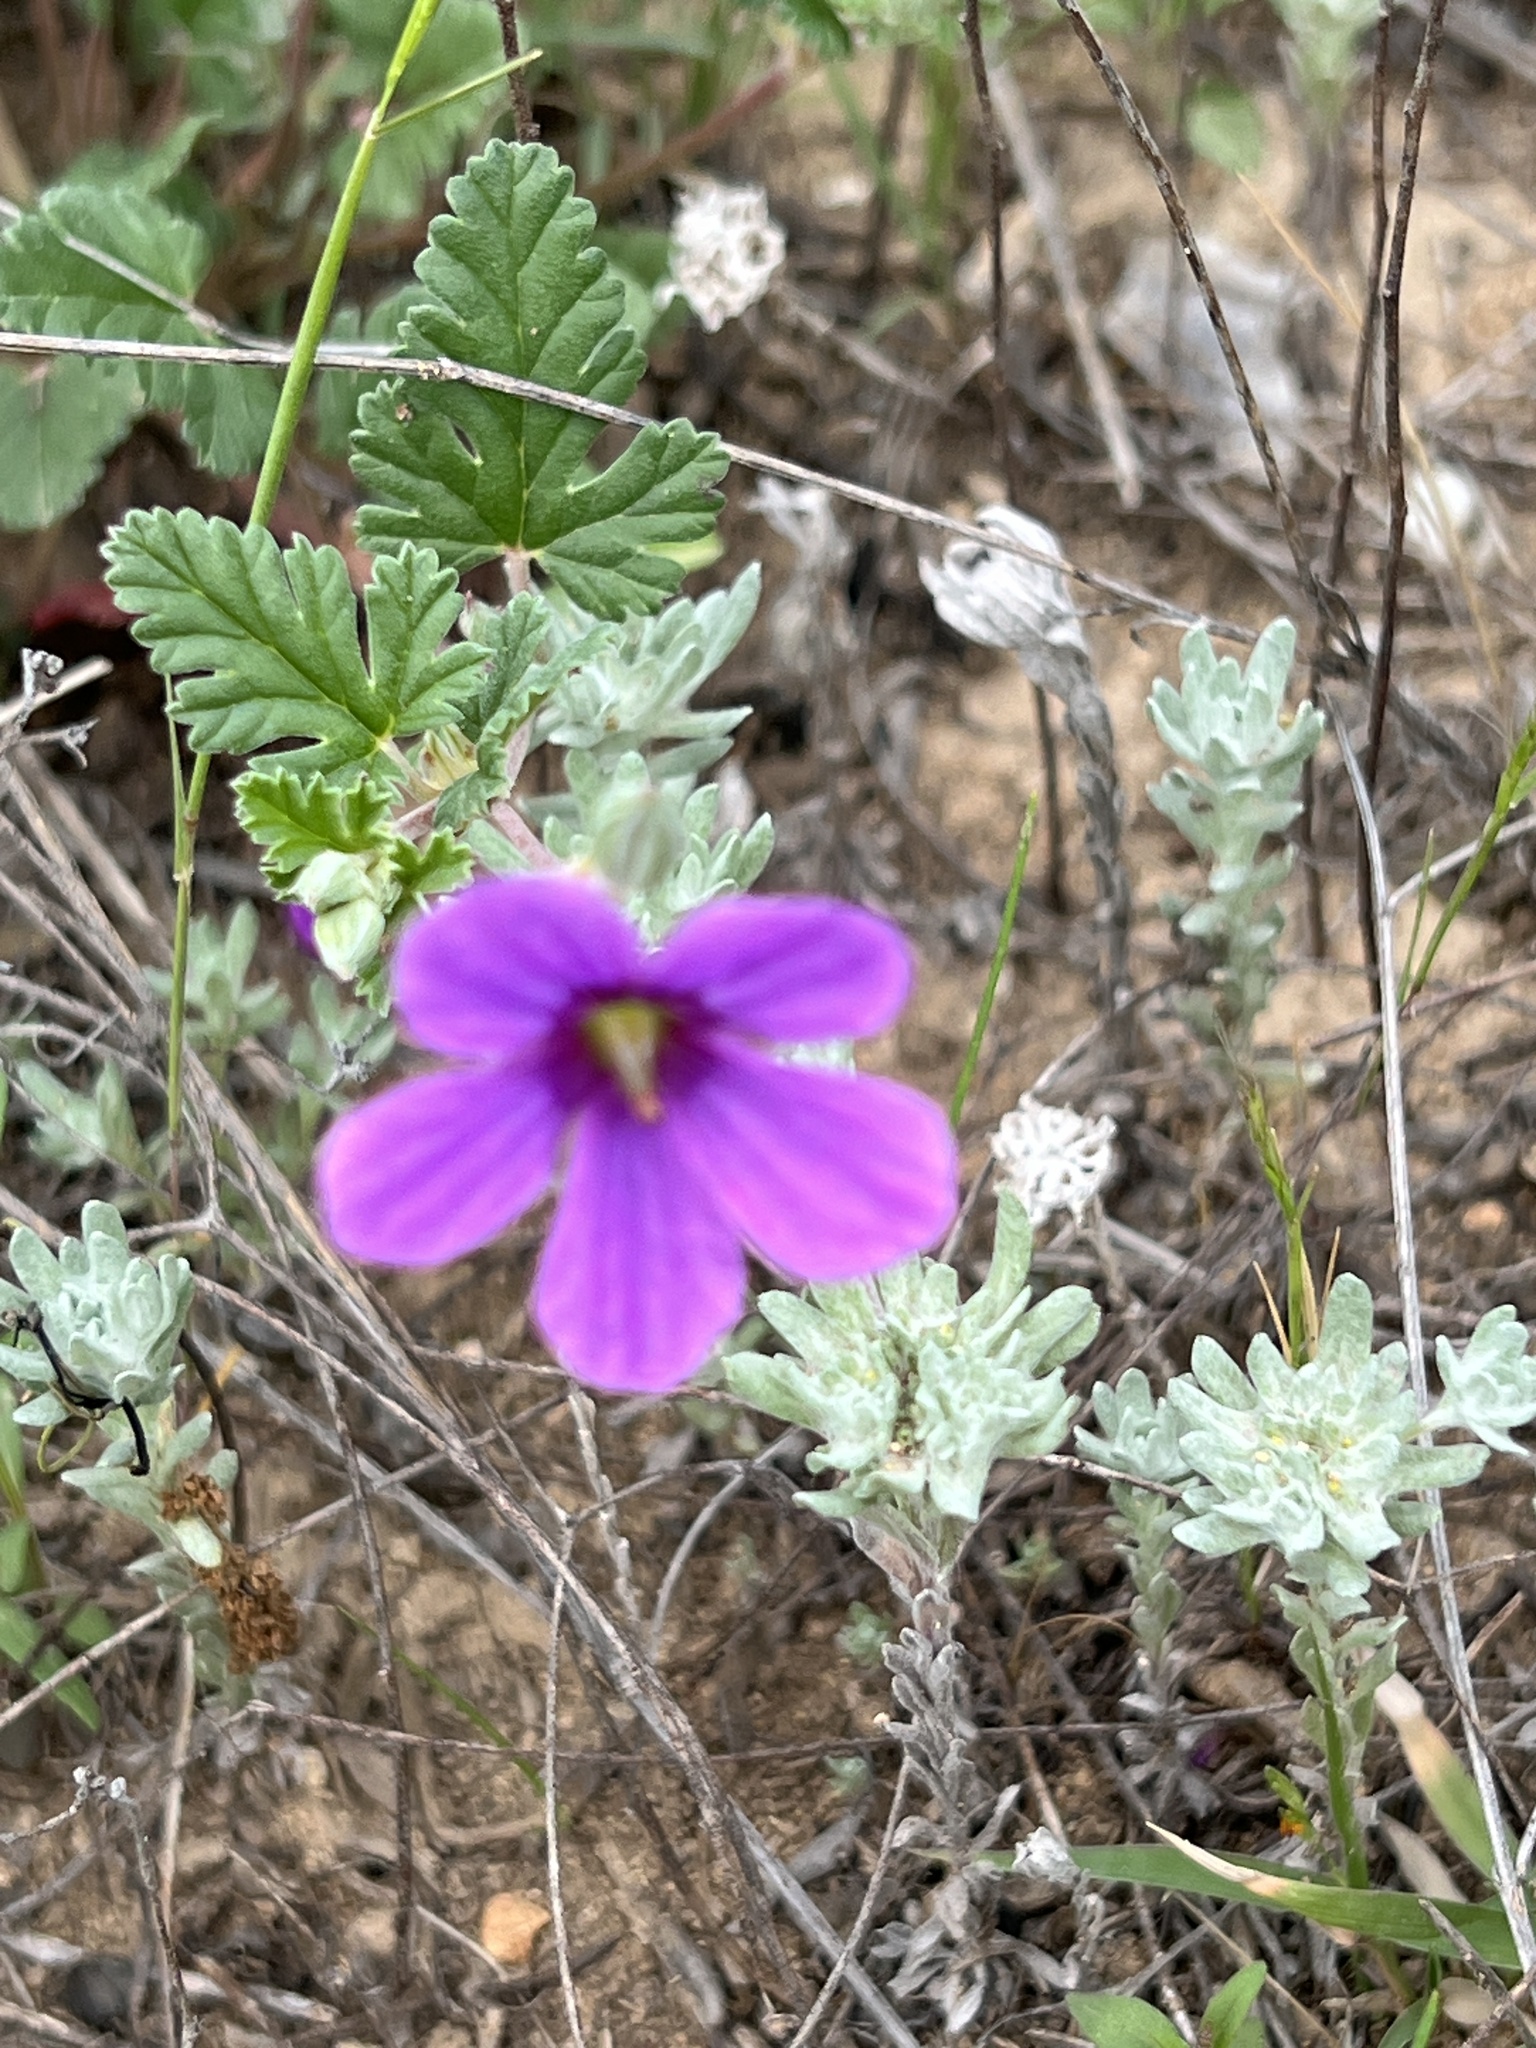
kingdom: Plantae
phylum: Tracheophyta
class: Magnoliopsida
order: Geraniales
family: Geraniaceae
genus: Erodium
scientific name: Erodium texanum
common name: Texas stork's-bill
